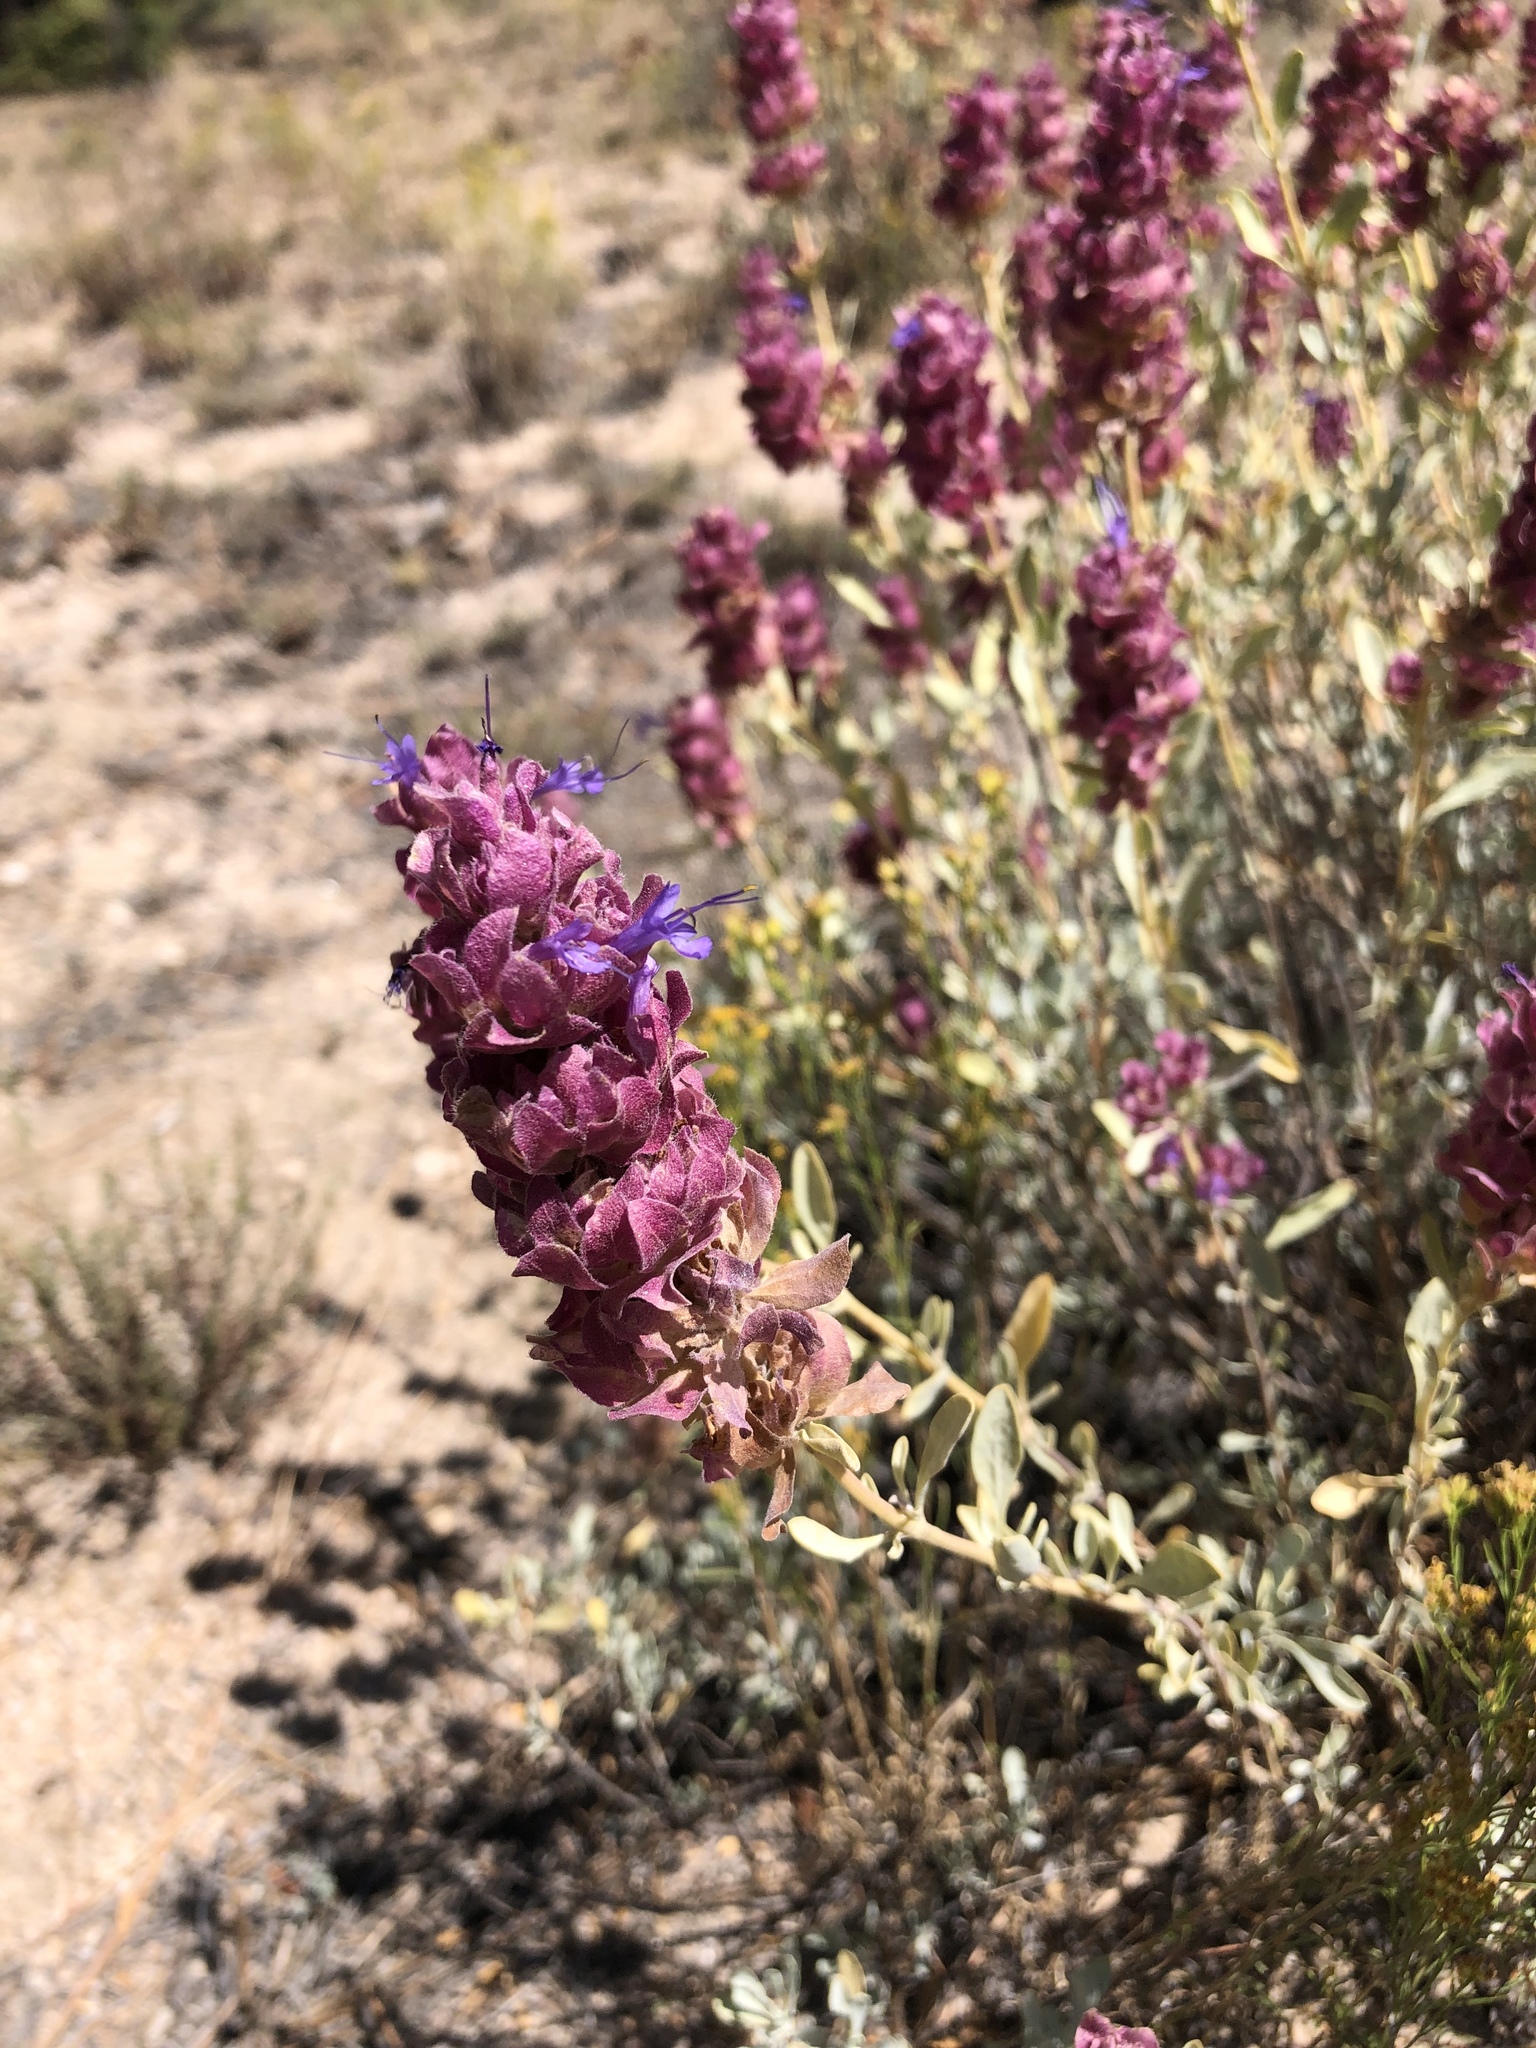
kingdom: Plantae
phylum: Tracheophyta
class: Magnoliopsida
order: Lamiales
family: Lamiaceae
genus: Salvia
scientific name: Salvia pachyphylla
